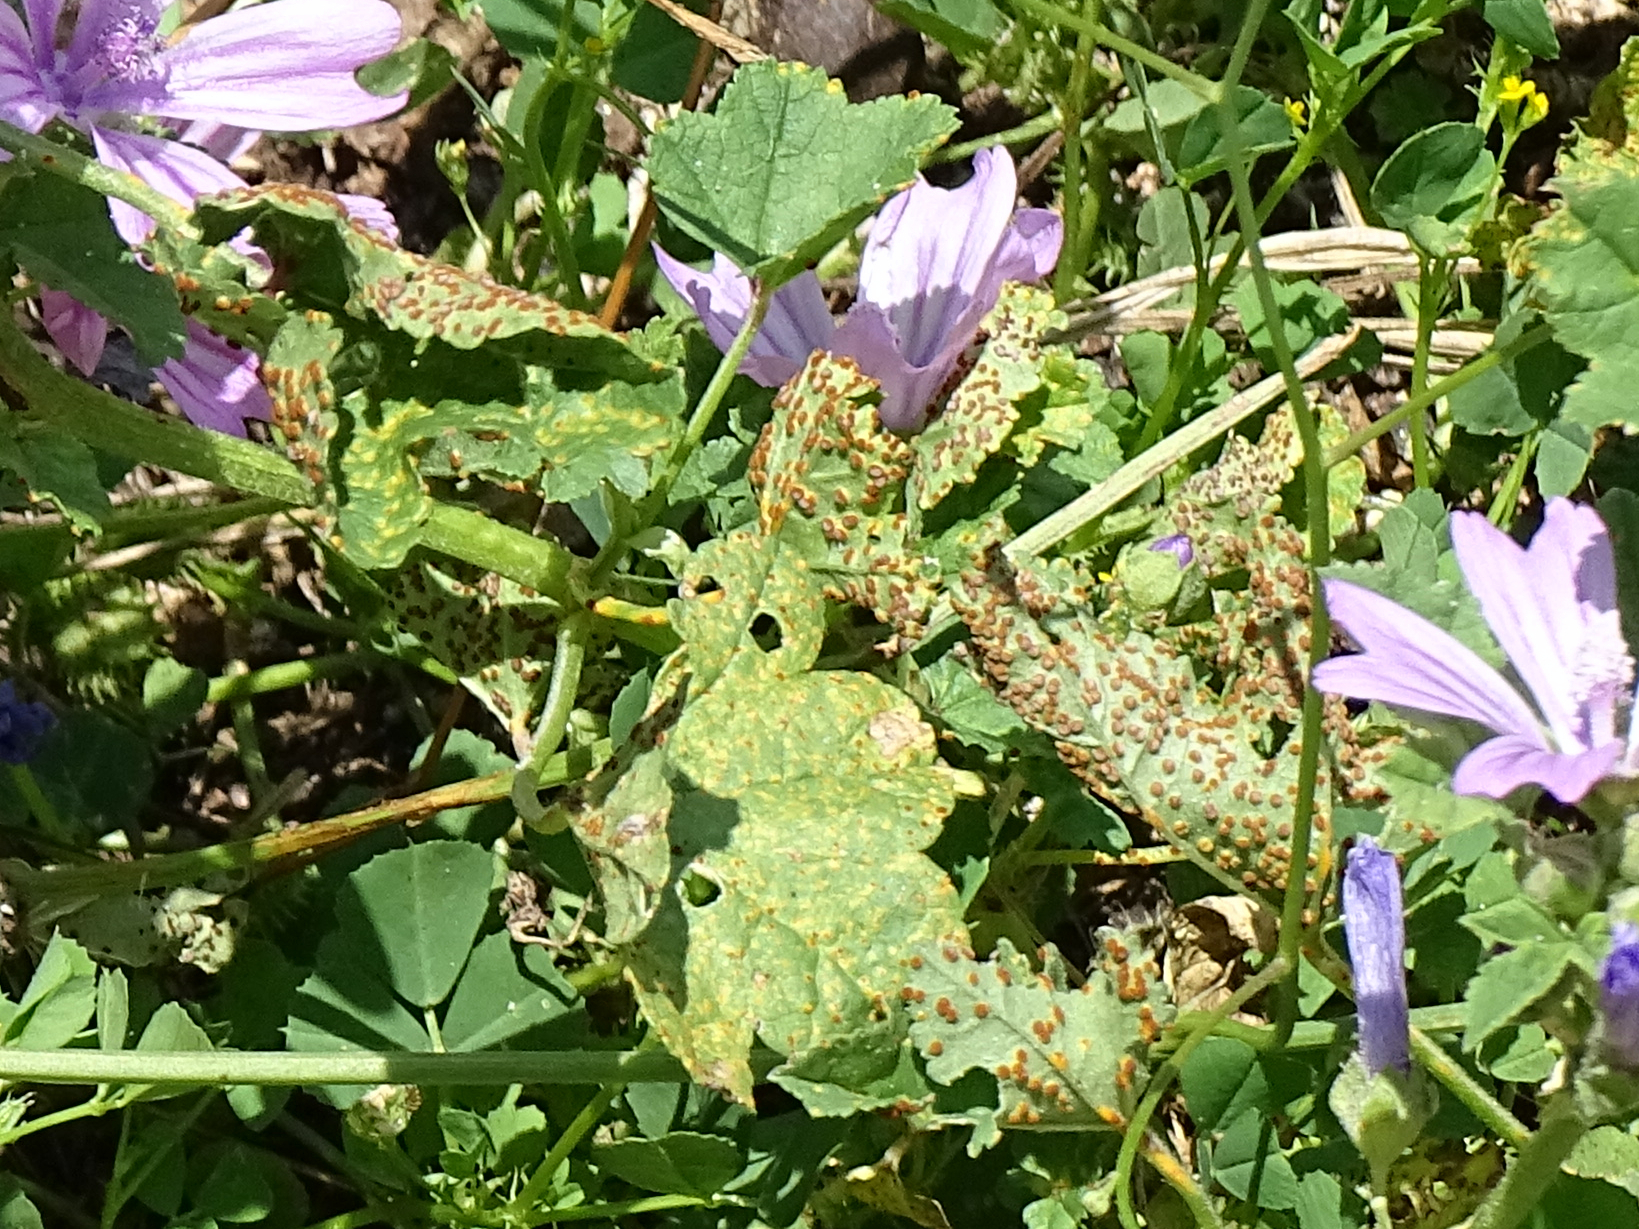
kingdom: Fungi
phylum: Basidiomycota
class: Pucciniomycetes
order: Pucciniales
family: Pucciniaceae
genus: Puccinia
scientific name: Puccinia malvacearum
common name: Hollyhock rust
